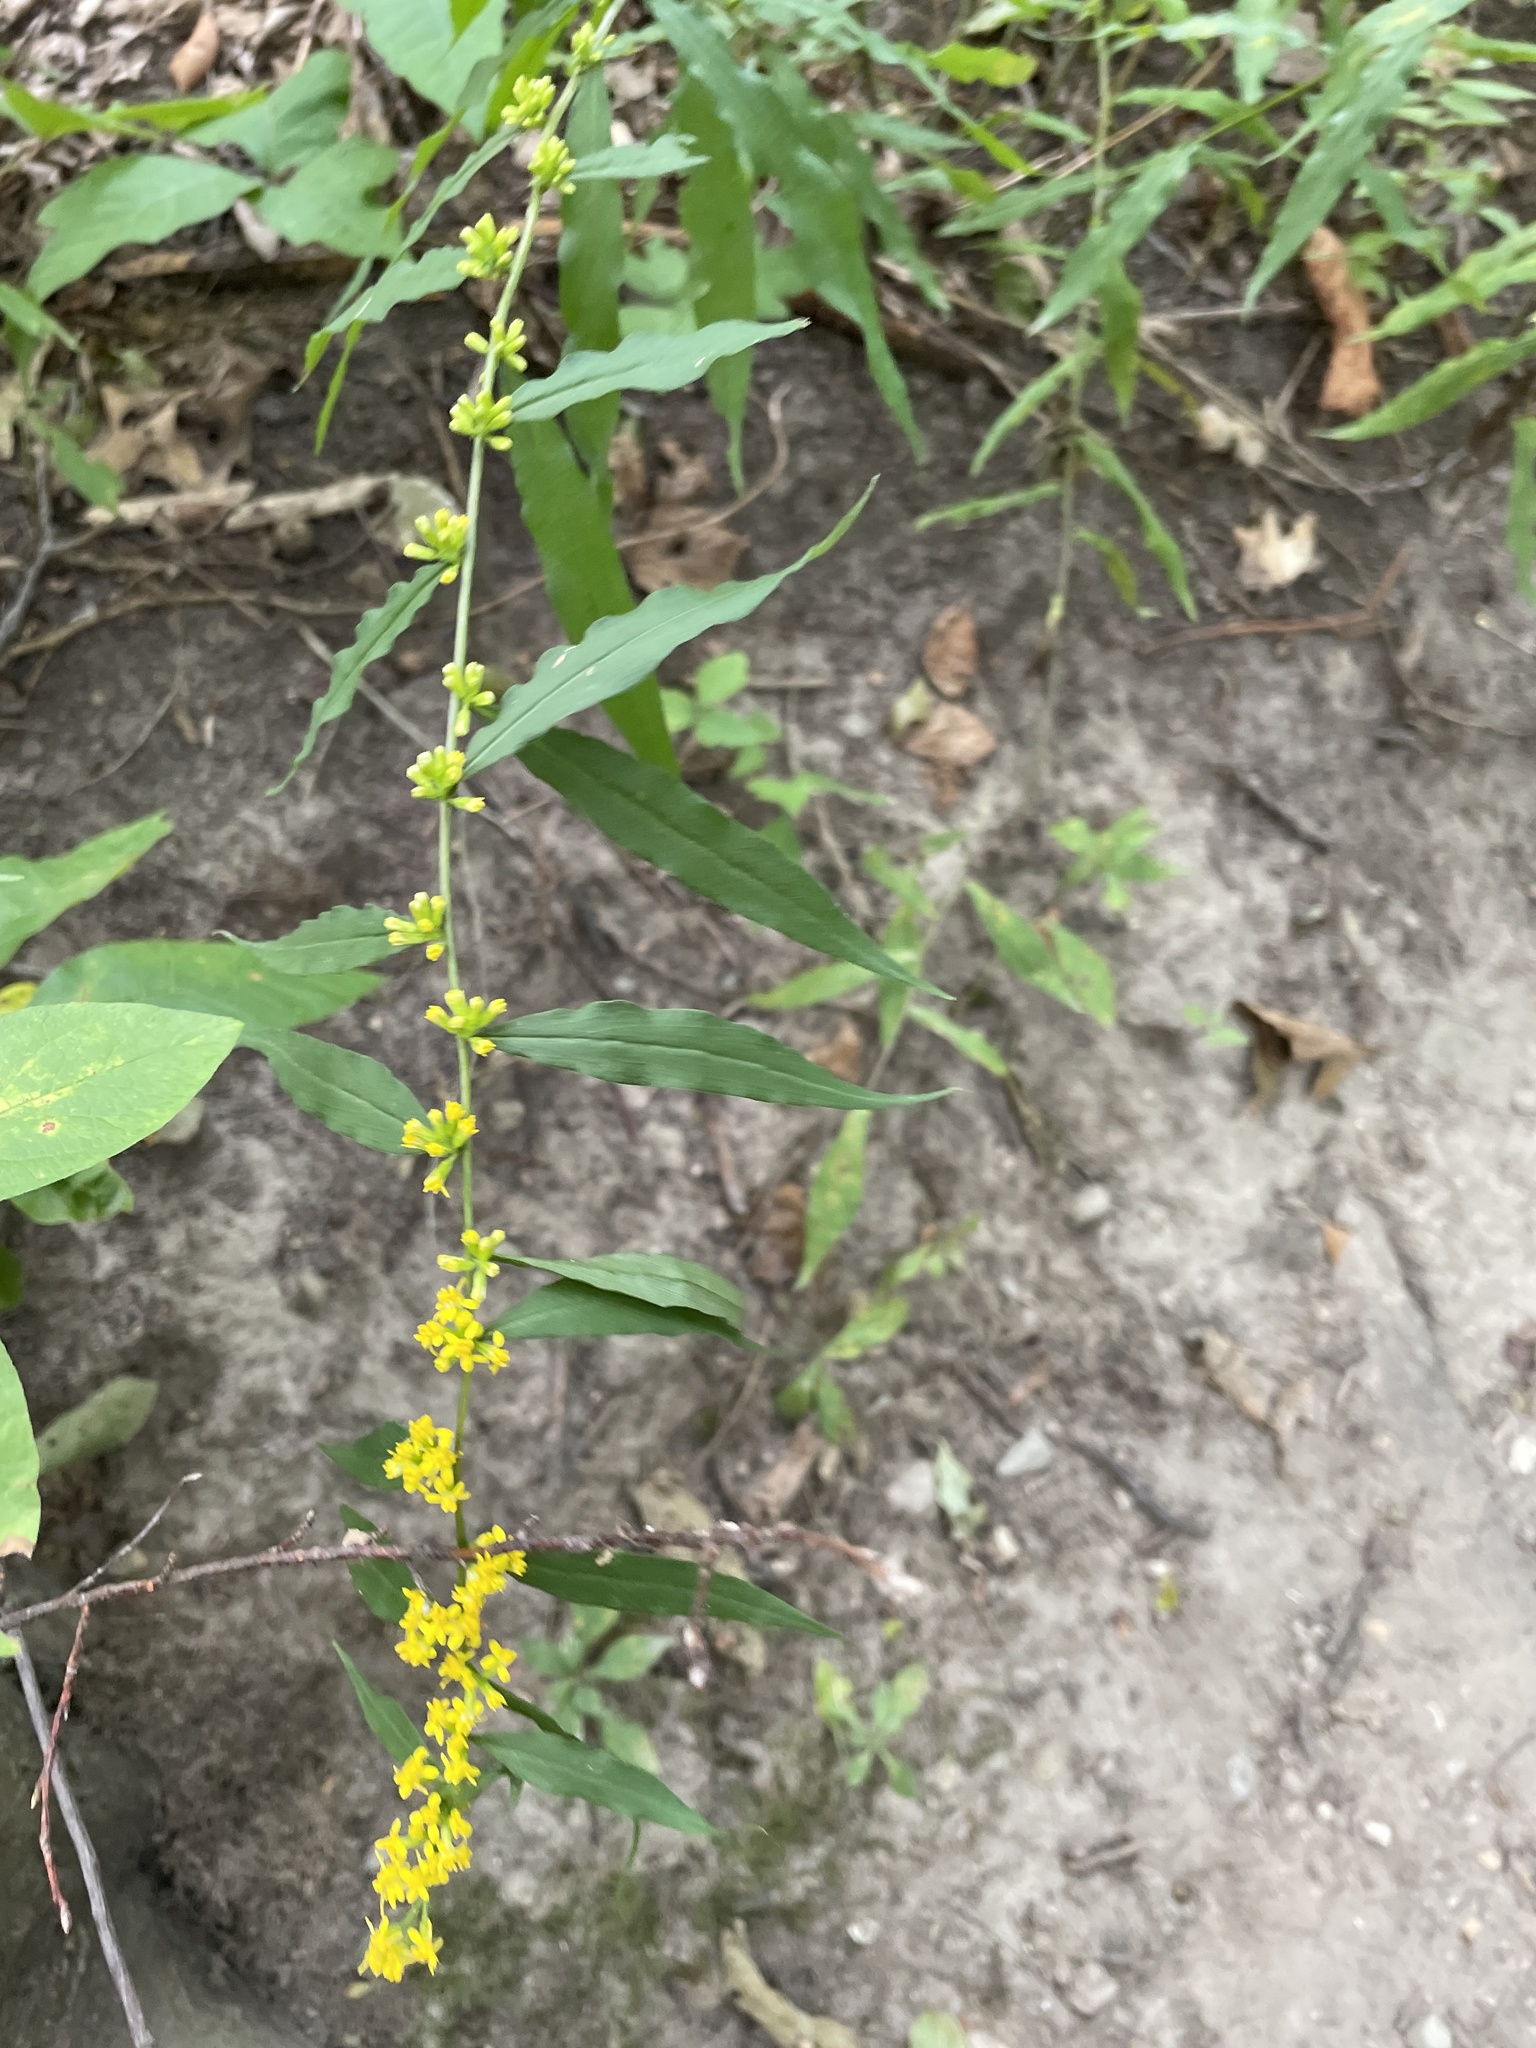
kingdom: Plantae
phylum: Tracheophyta
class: Magnoliopsida
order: Asterales
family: Asteraceae
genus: Solidago
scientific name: Solidago caesia
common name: Woodland goldenrod
